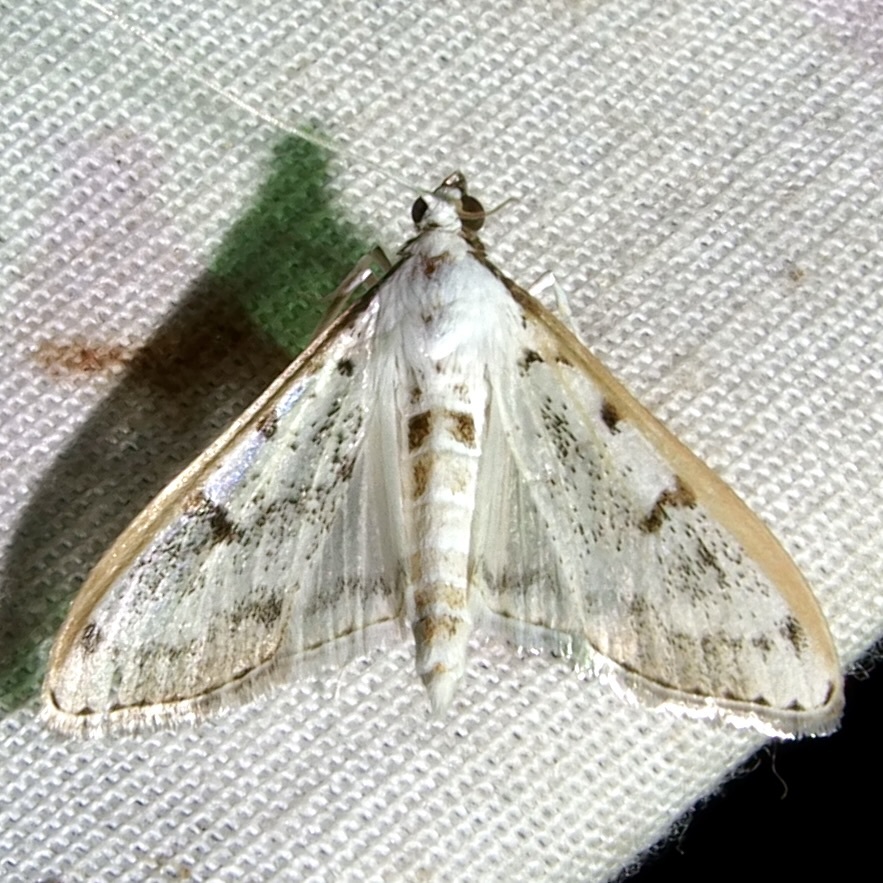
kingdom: Animalia
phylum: Arthropoda
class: Insecta
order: Lepidoptera
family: Crambidae
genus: Palpita
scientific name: Palpita gracilalis
